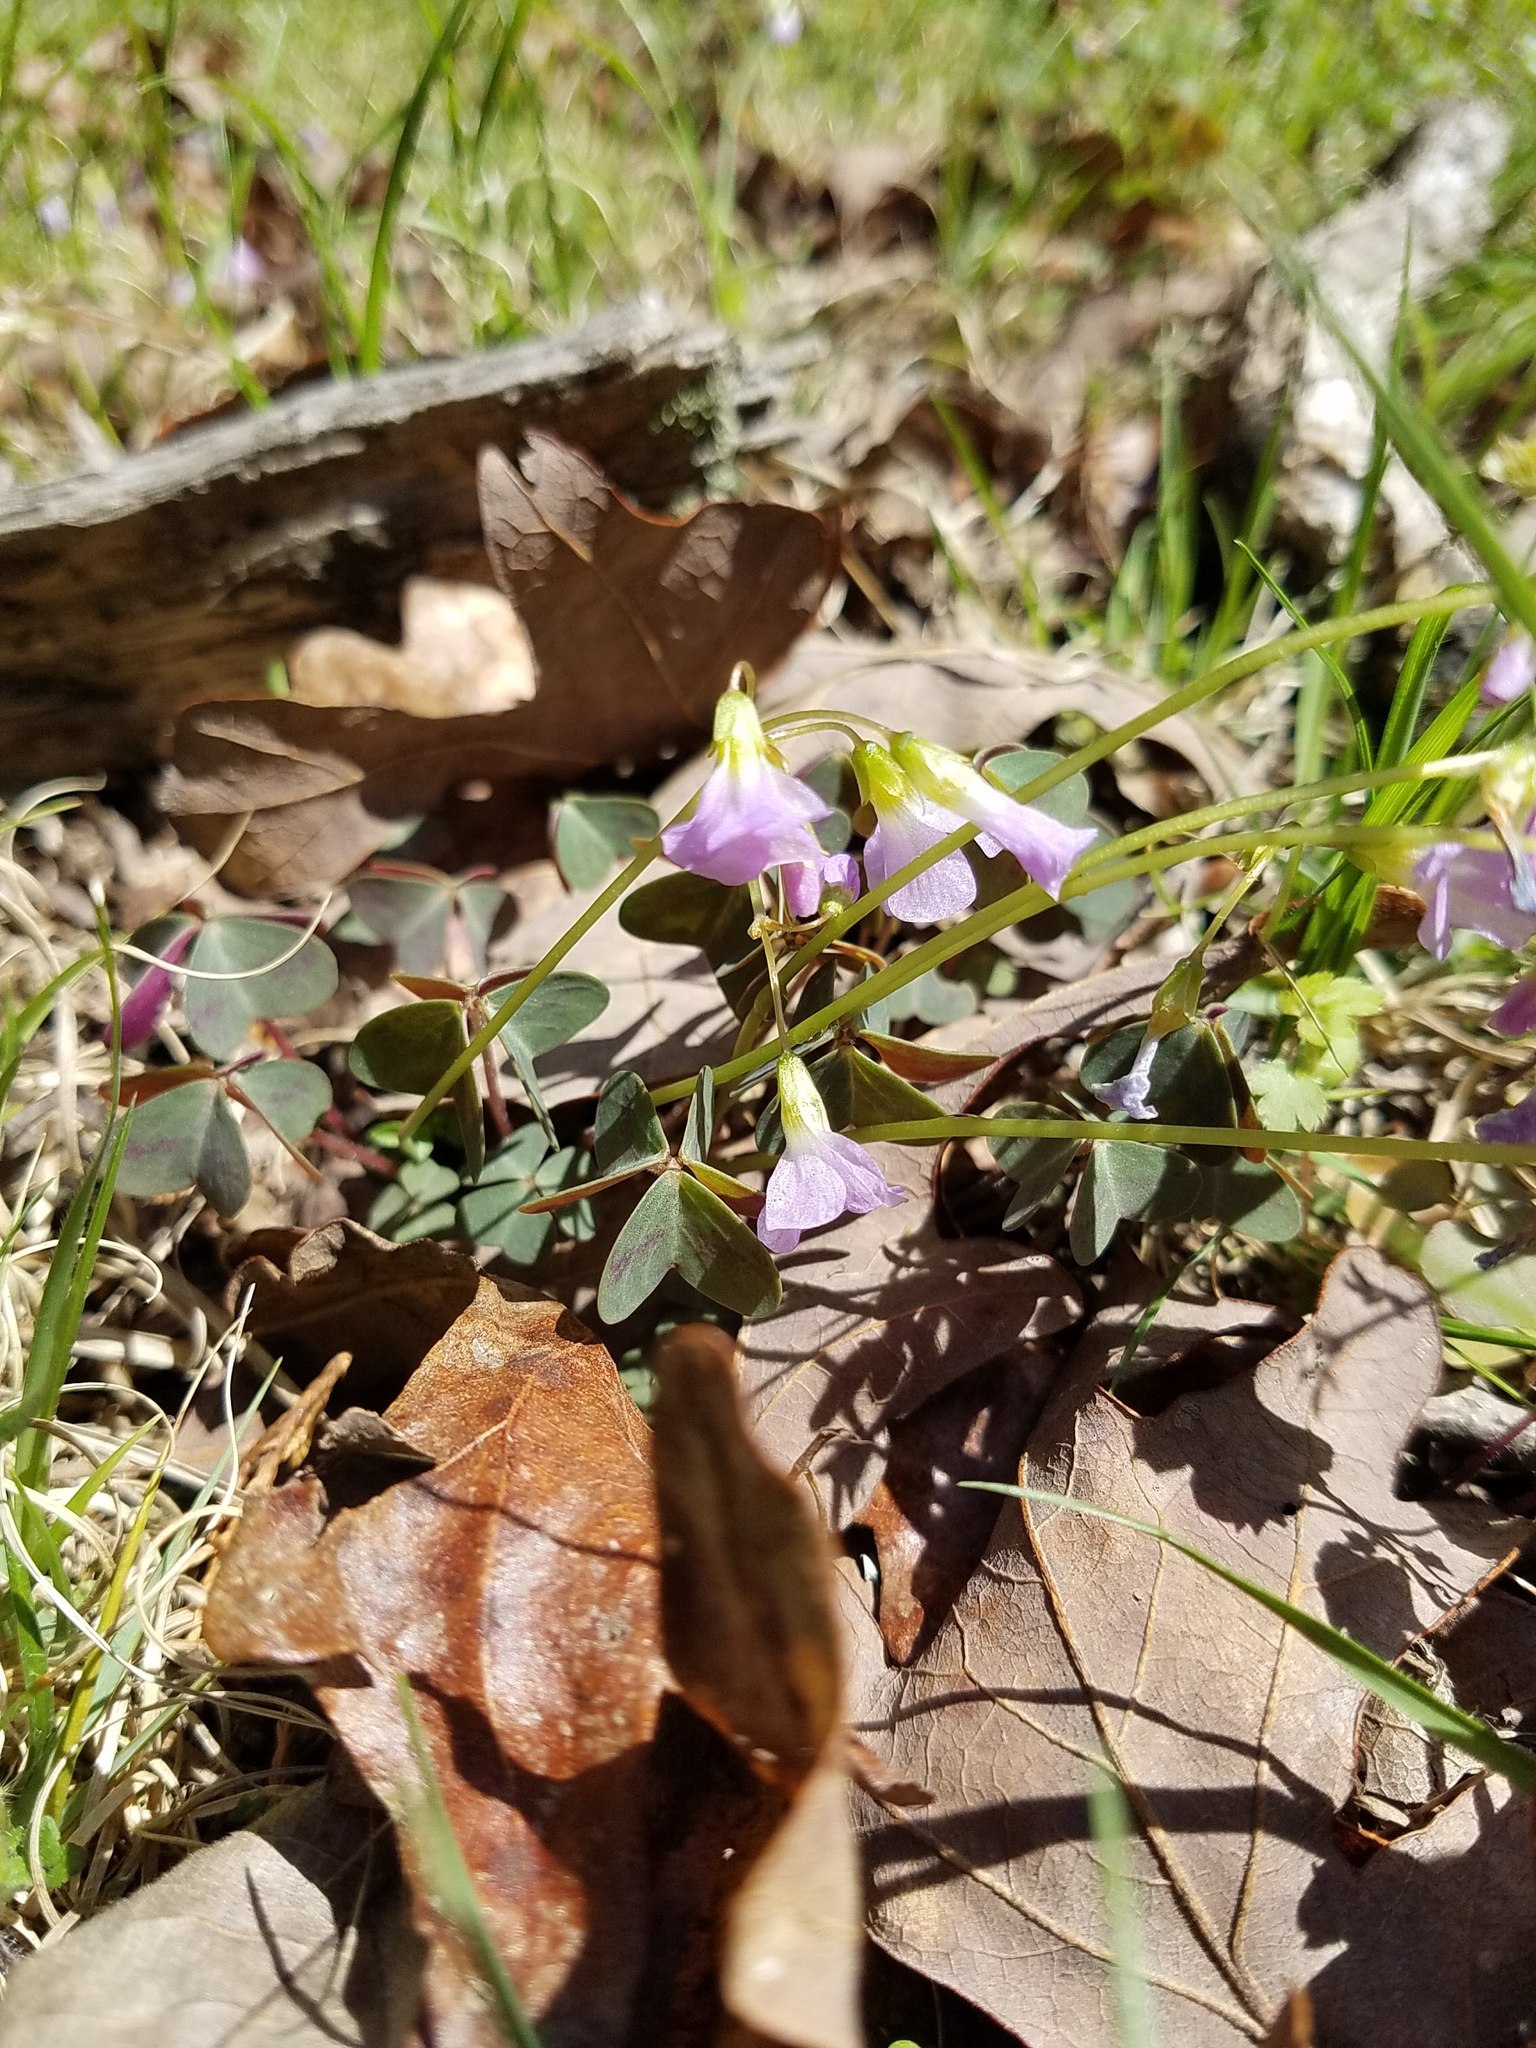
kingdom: Plantae
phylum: Tracheophyta
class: Magnoliopsida
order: Oxalidales
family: Oxalidaceae
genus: Oxalis
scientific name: Oxalis violacea
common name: Violet wood-sorrel
